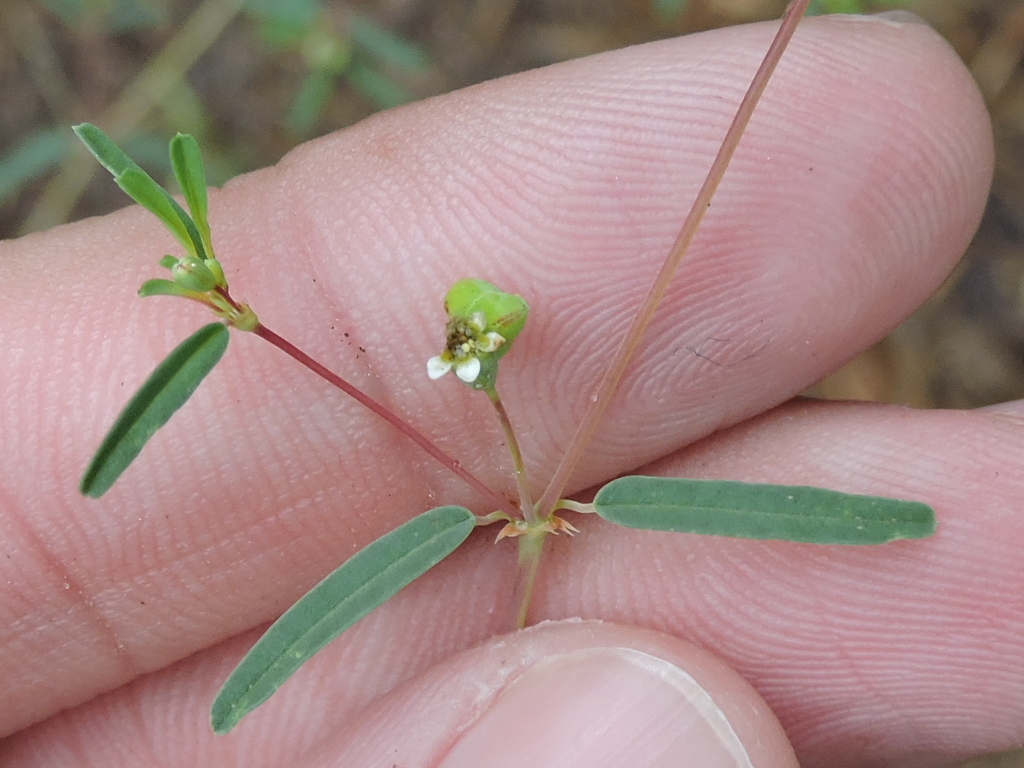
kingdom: Plantae
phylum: Tracheophyta
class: Magnoliopsida
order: Malpighiales
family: Euphorbiaceae
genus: Euphorbia
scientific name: Euphorbia missurica
